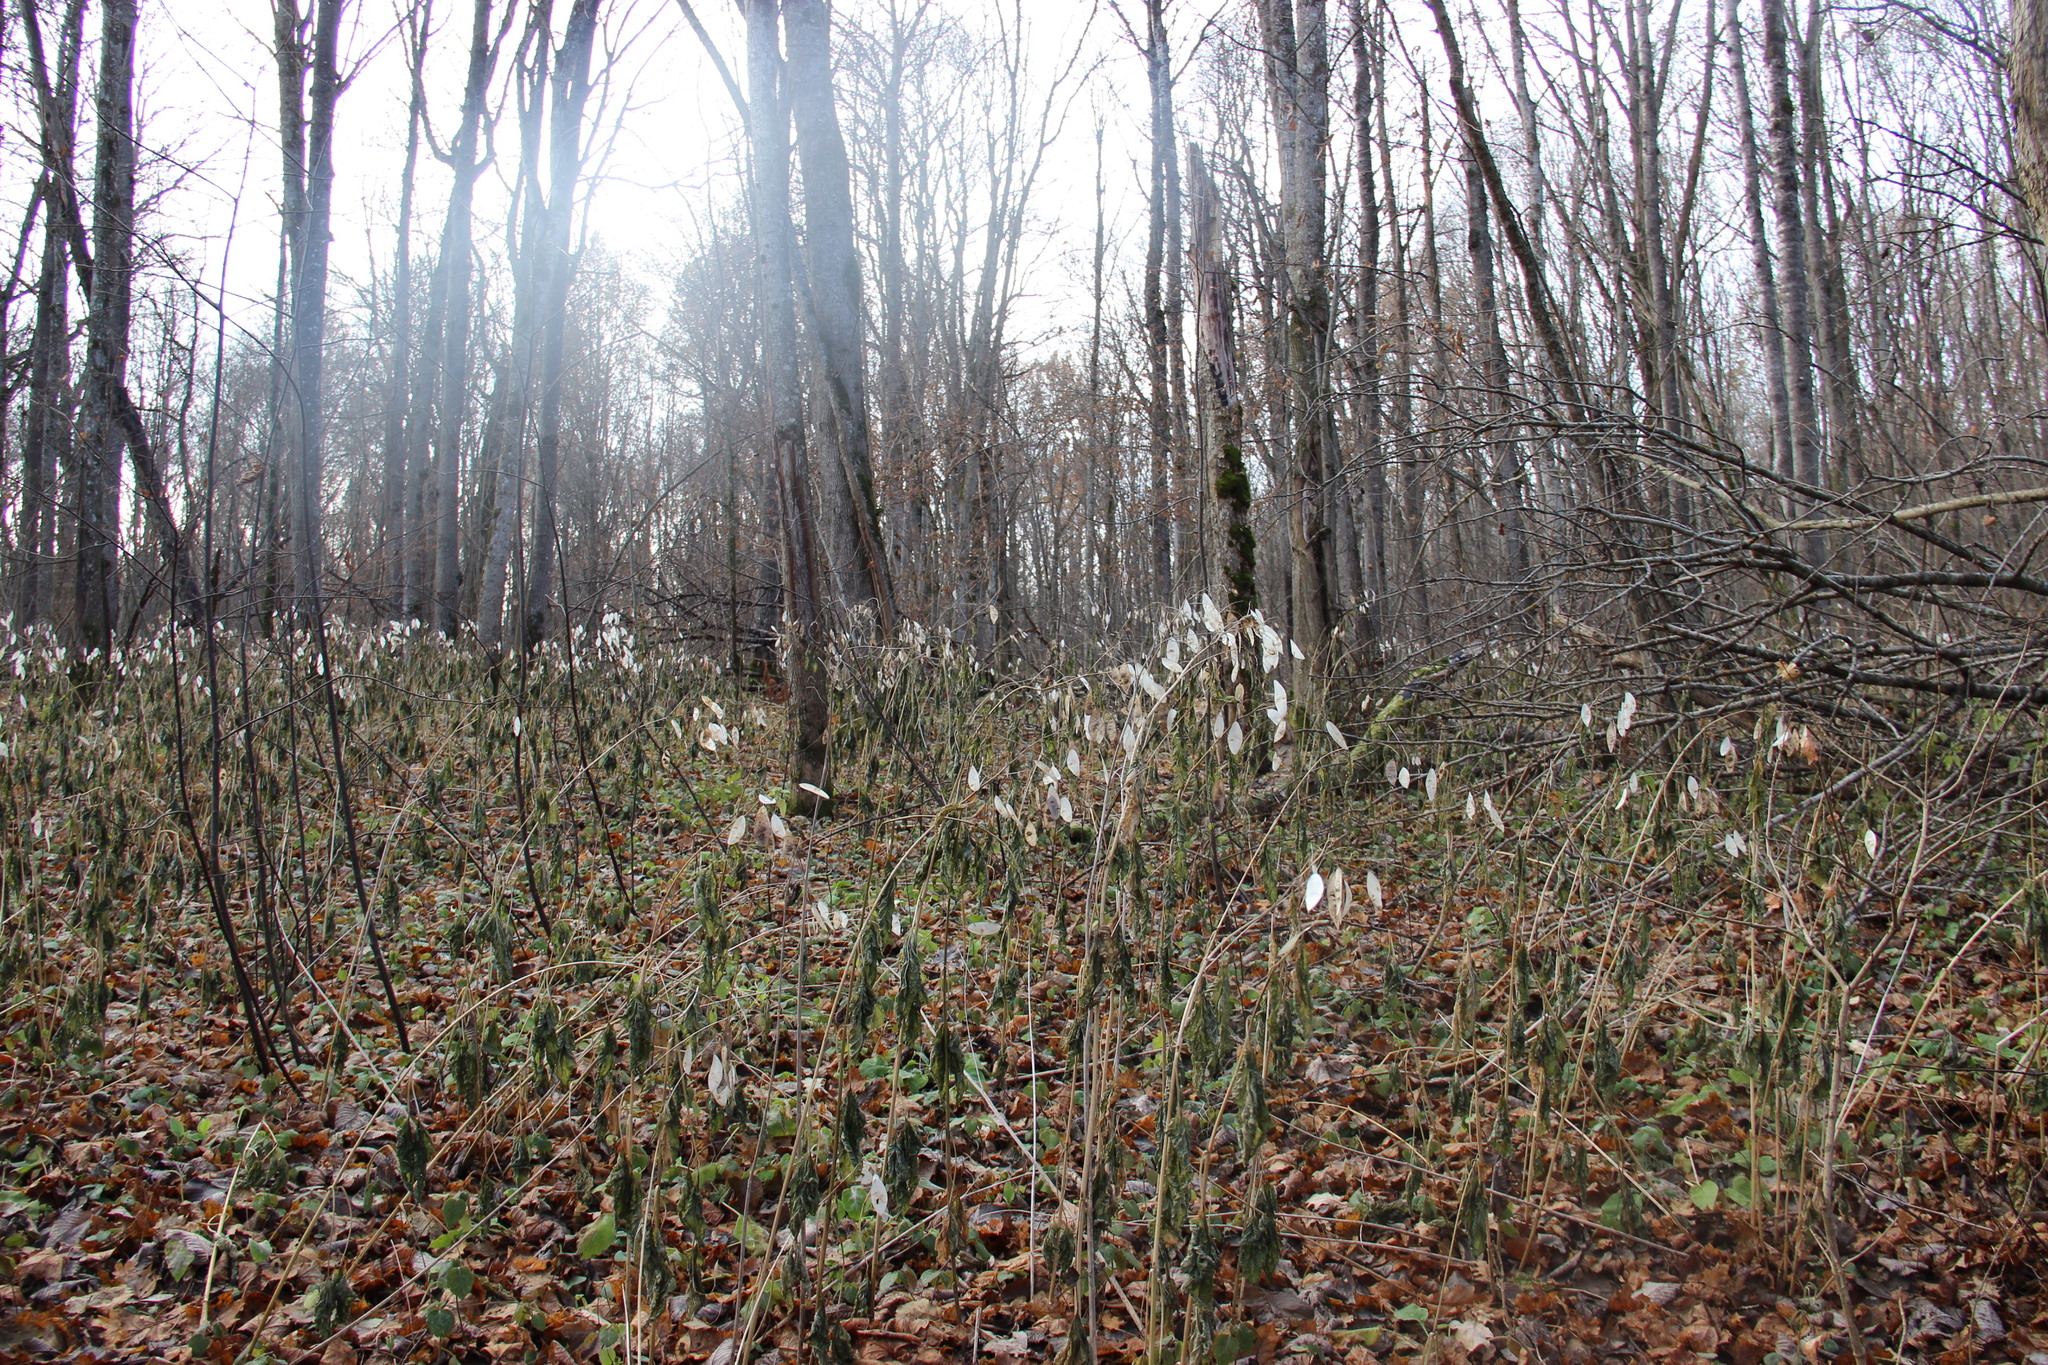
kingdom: Plantae
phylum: Tracheophyta
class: Magnoliopsida
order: Brassicales
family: Brassicaceae
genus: Lunaria
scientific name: Lunaria rediviva
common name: Perennial honesty
